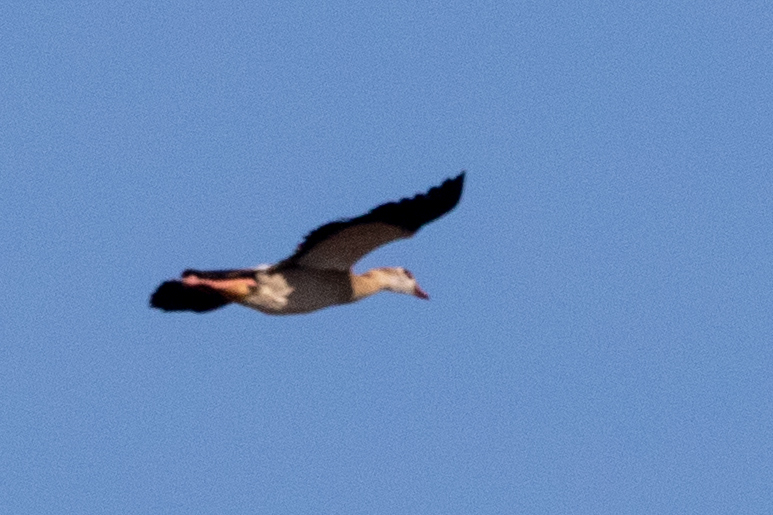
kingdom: Animalia
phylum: Chordata
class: Aves
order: Anseriformes
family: Anatidae
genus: Alopochen
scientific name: Alopochen aegyptiaca
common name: Egyptian goose
